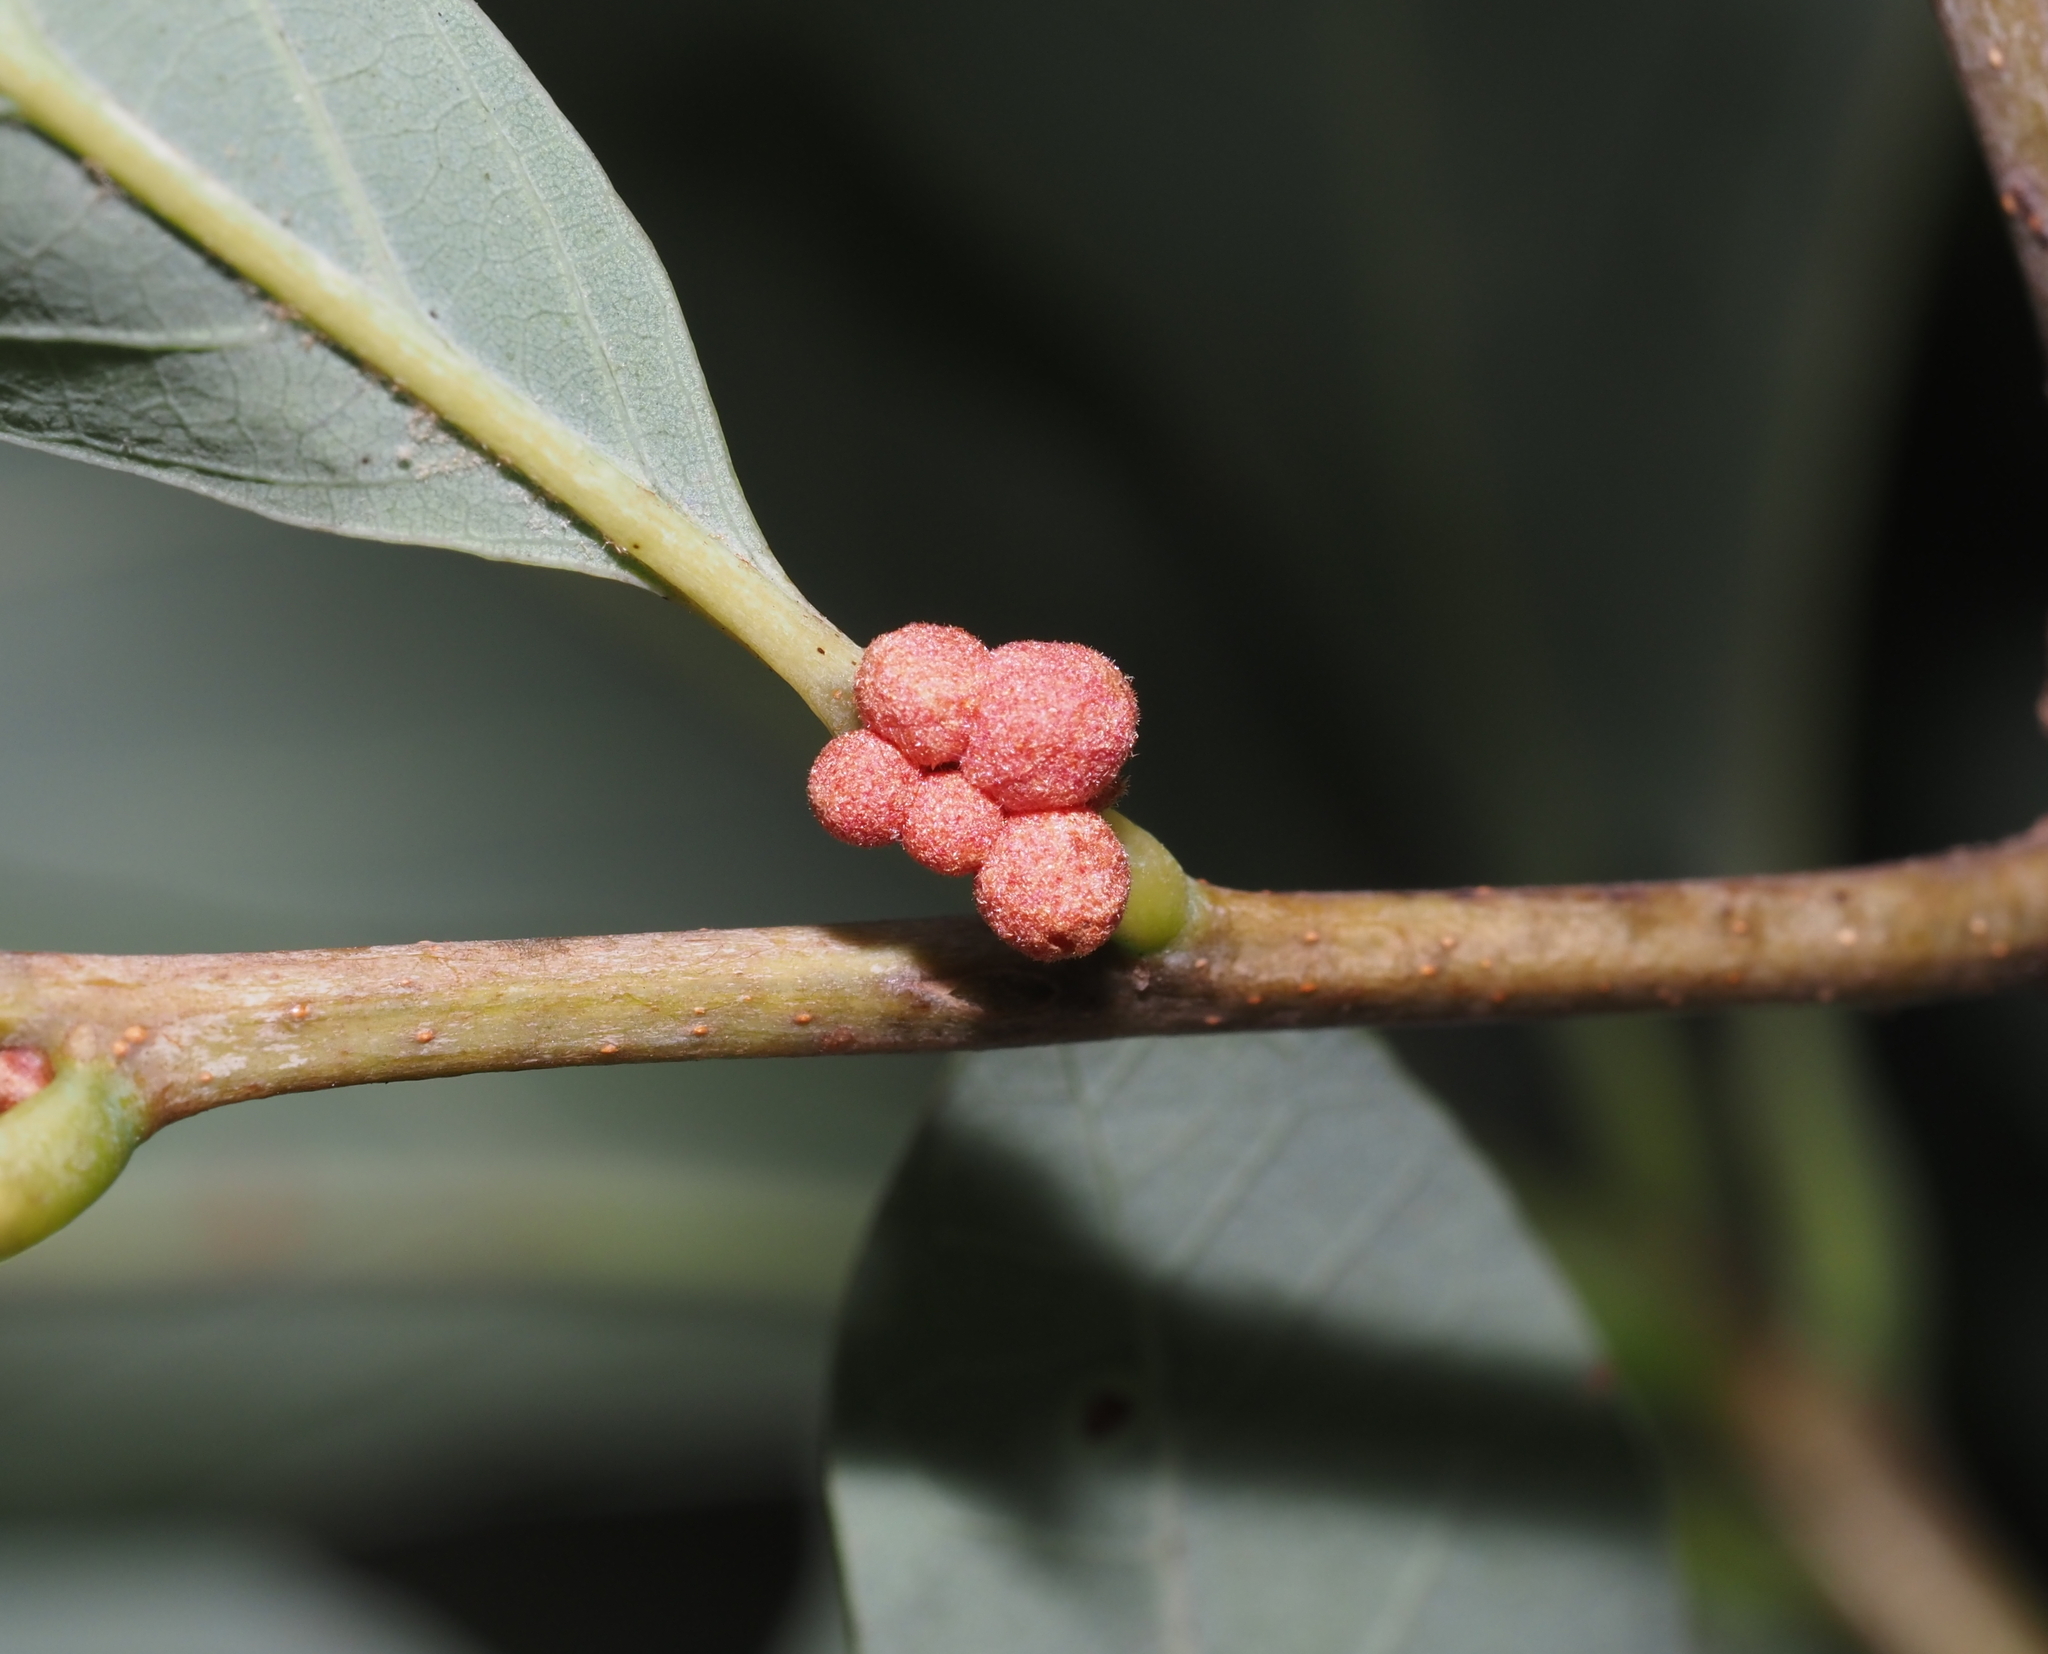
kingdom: Animalia
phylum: Arthropoda
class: Insecta
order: Hymenoptera
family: Cynipidae
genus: Andricus
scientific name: Andricus
